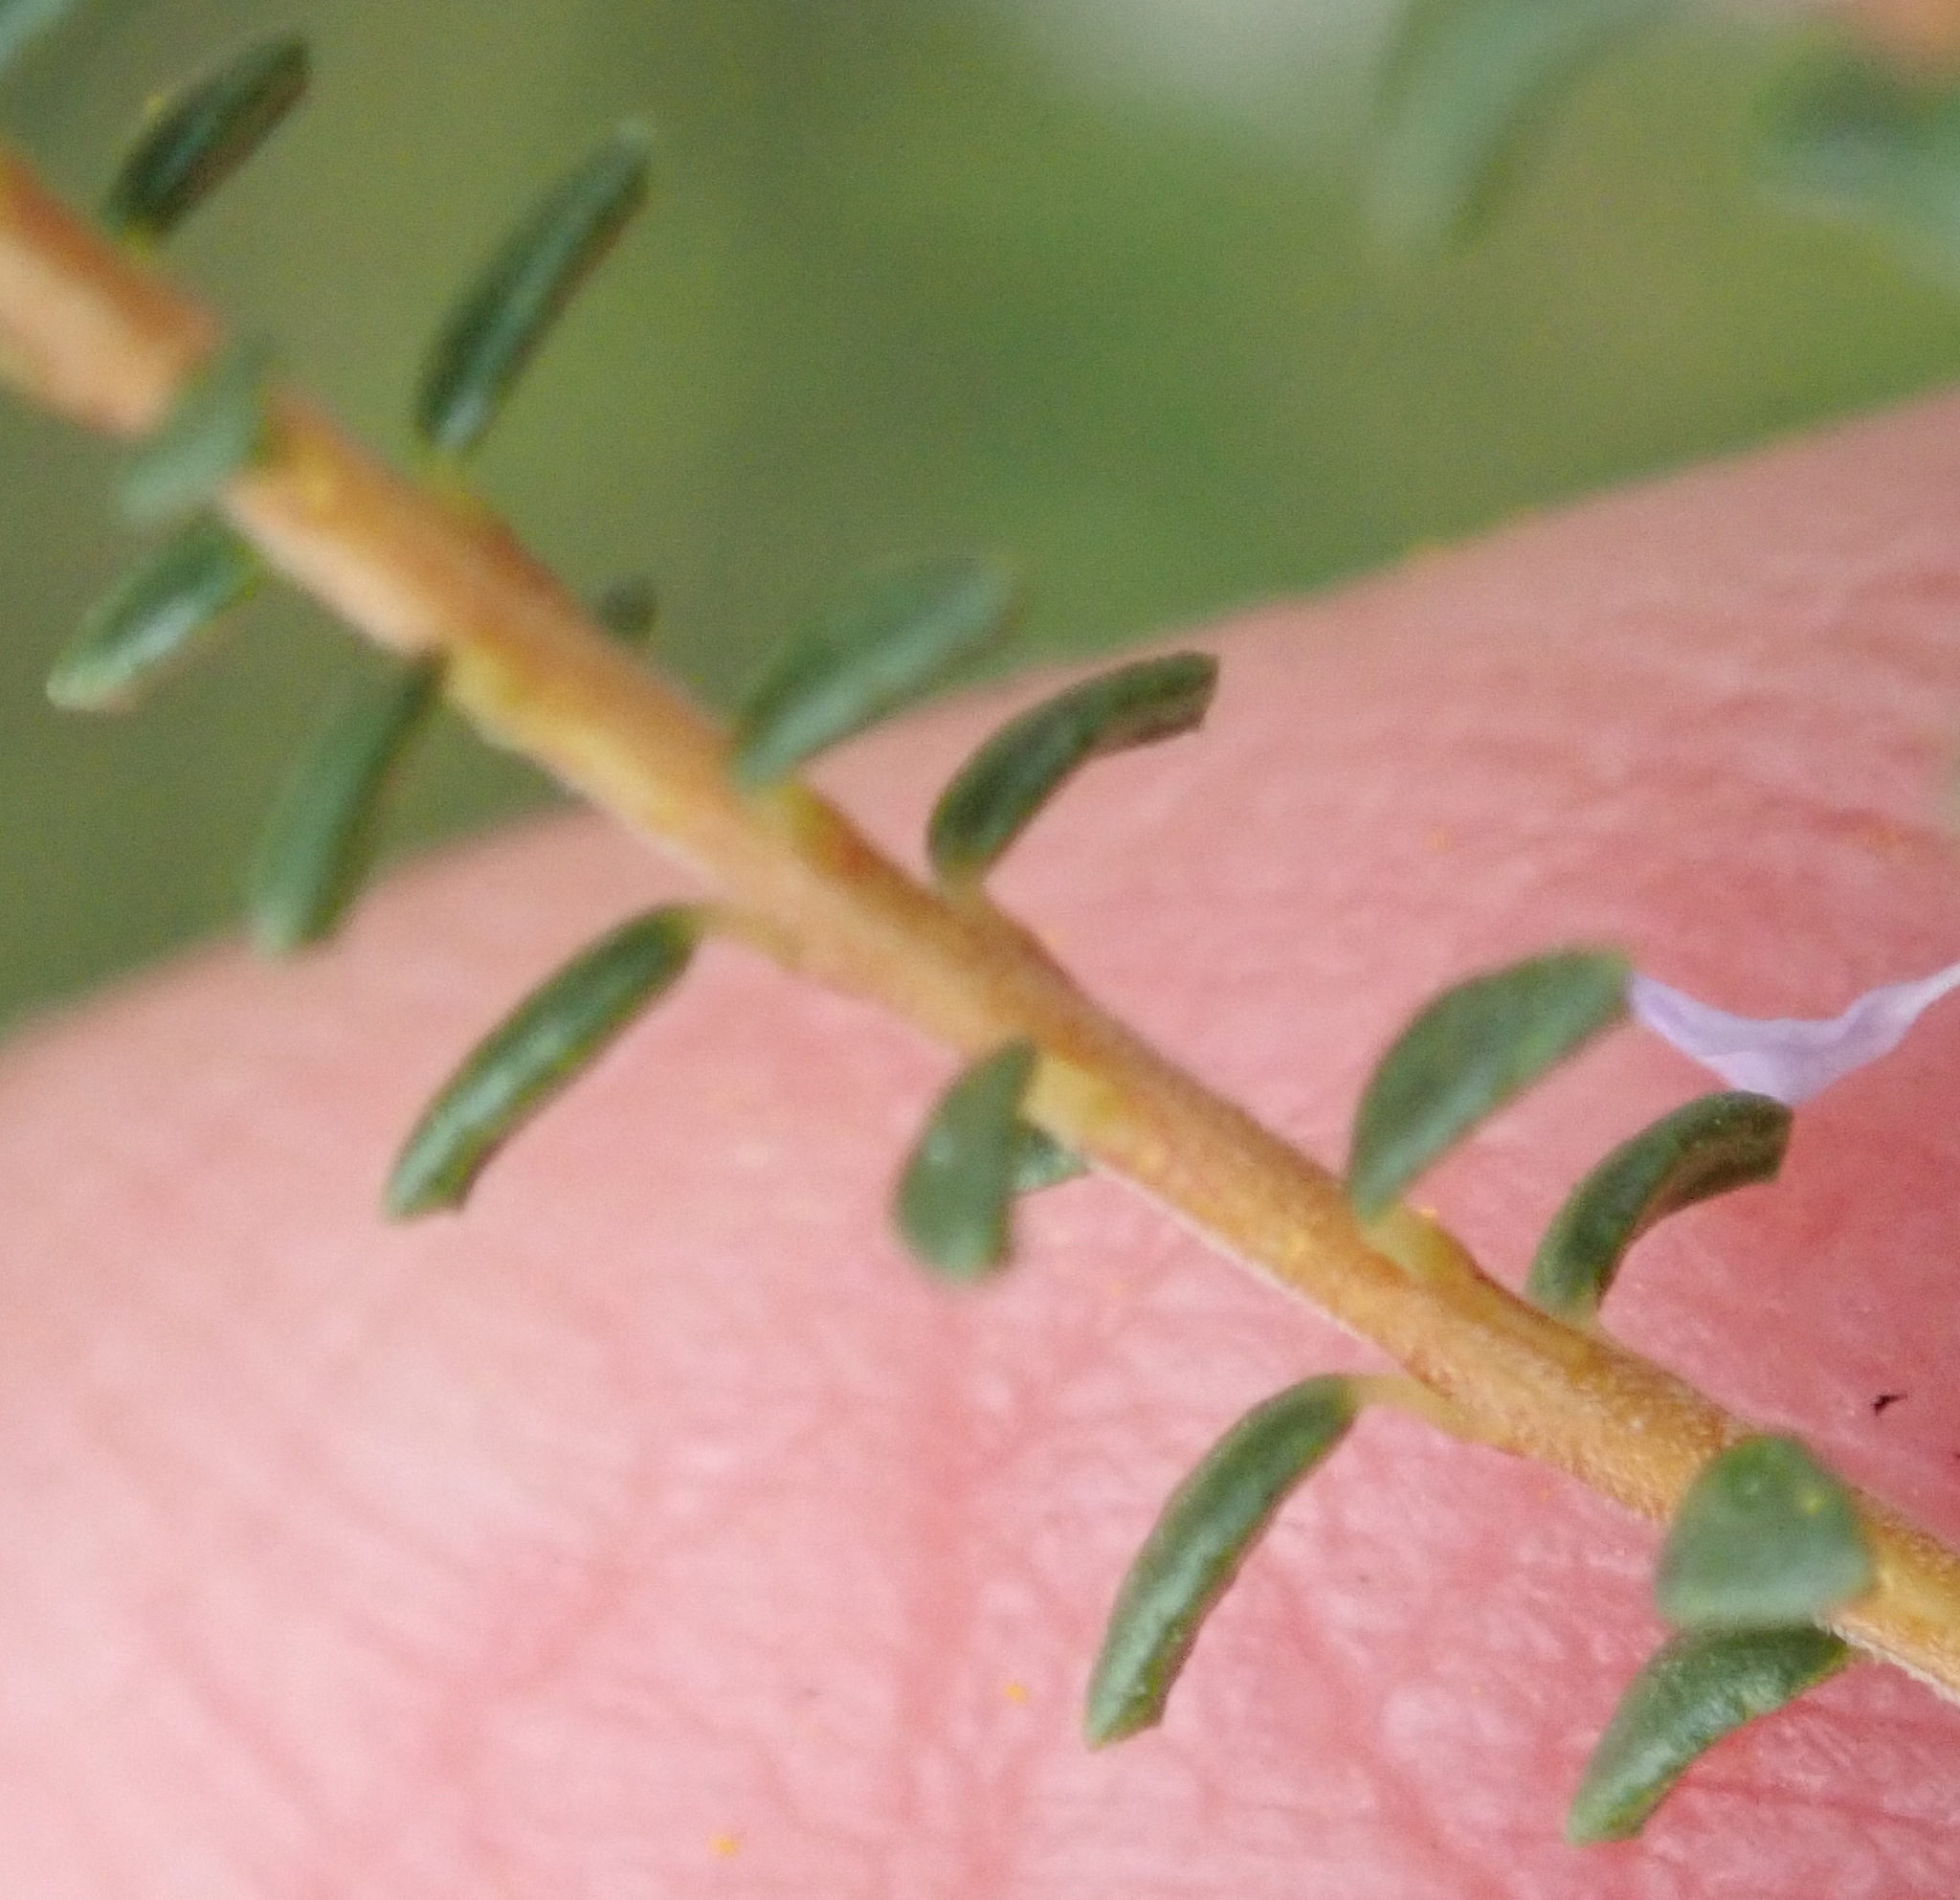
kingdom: Plantae
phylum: Tracheophyta
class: Magnoliopsida
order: Sapindales
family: Rutaceae
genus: Agathosma
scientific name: Agathosma capensis
